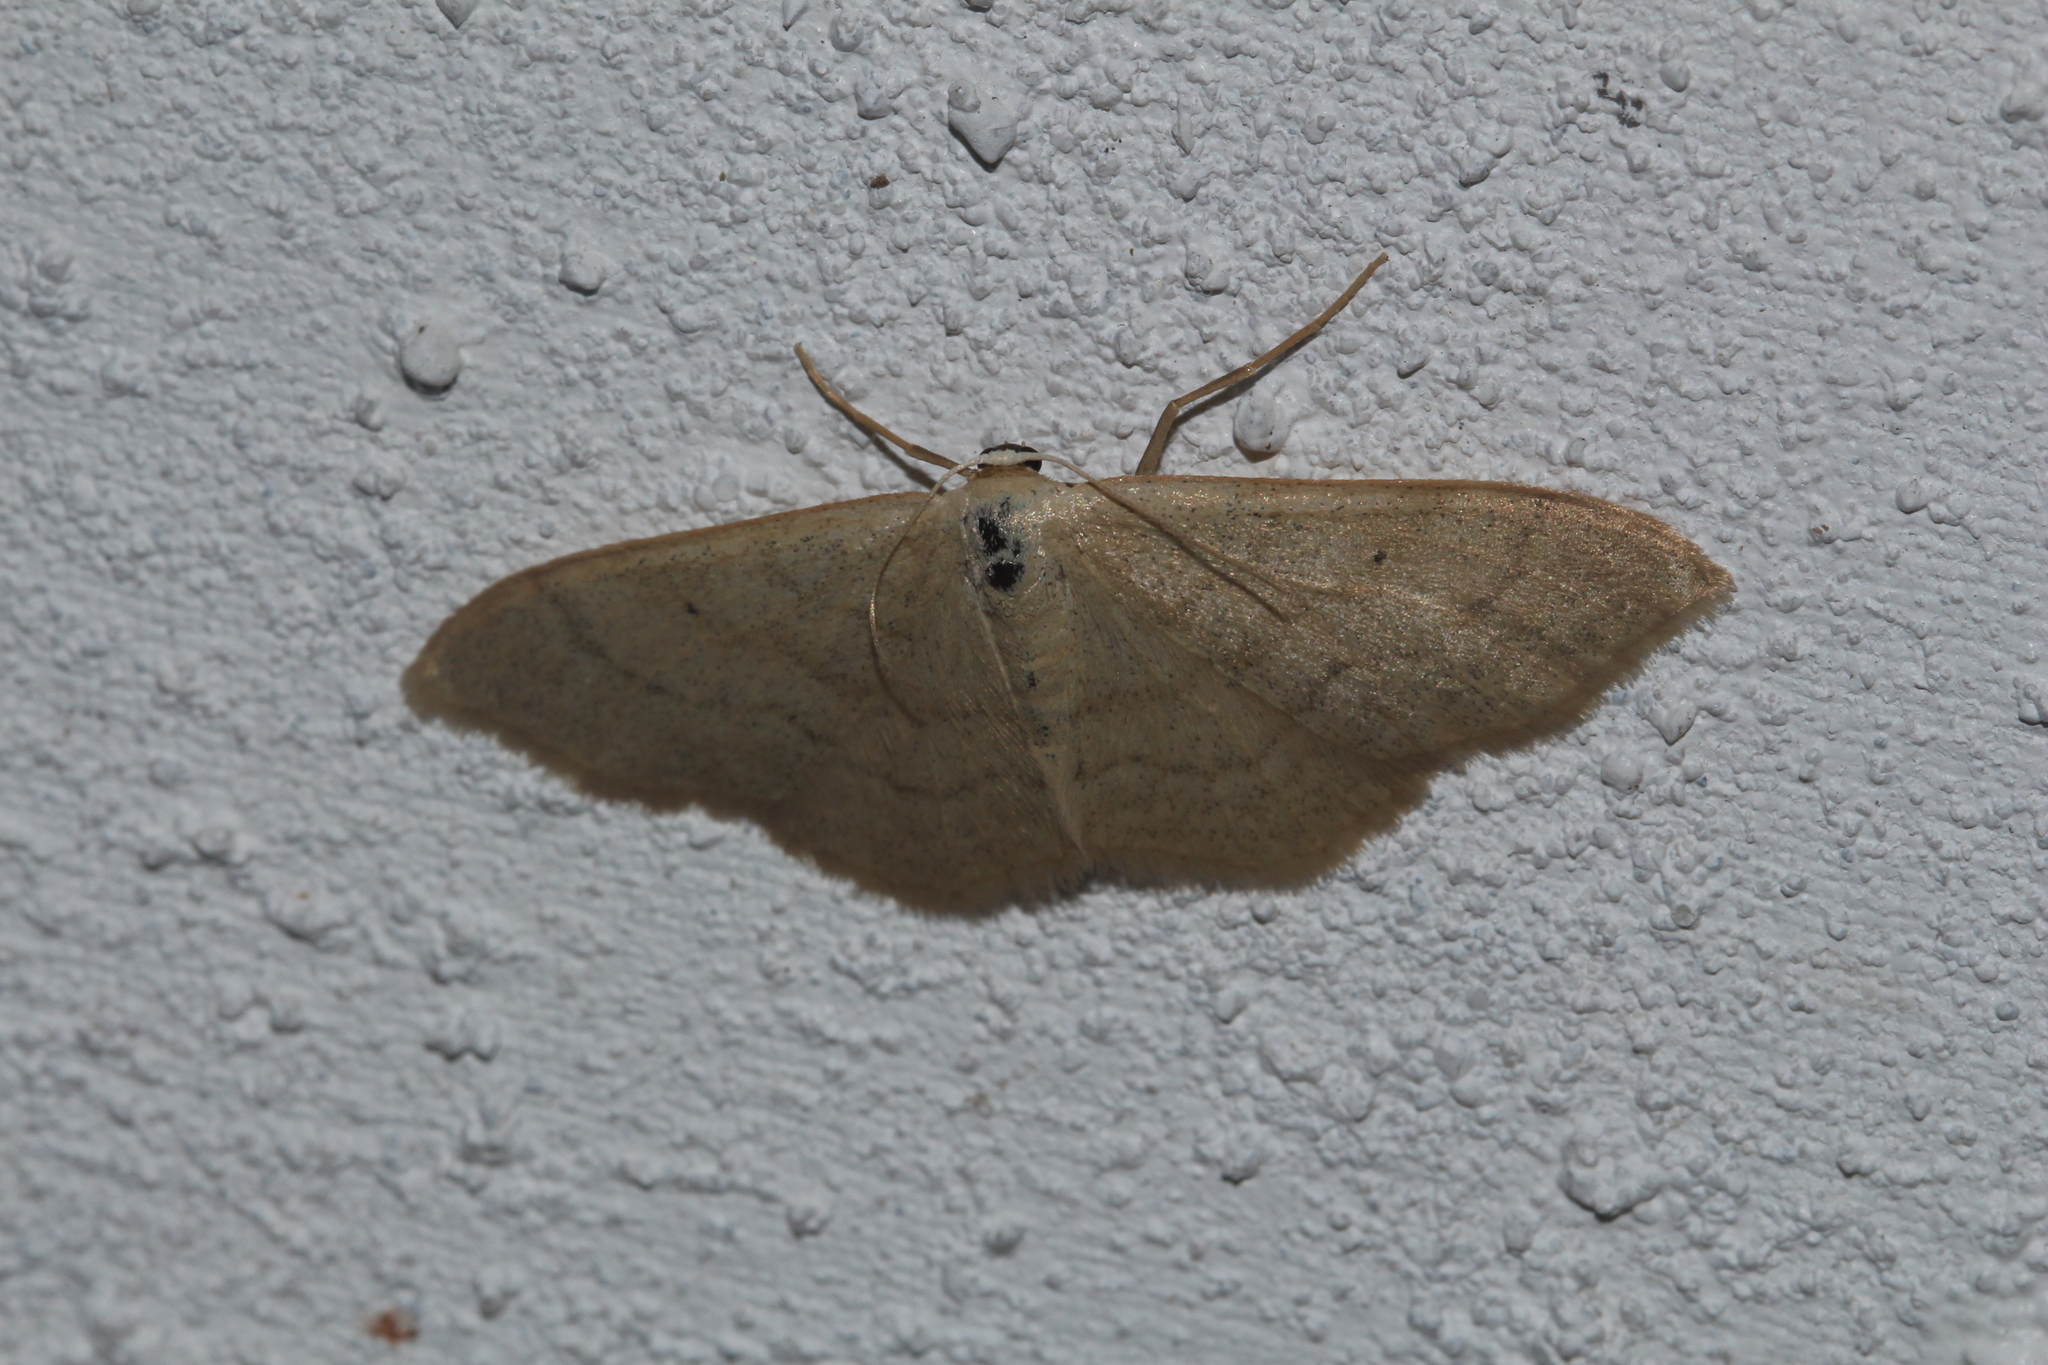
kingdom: Animalia
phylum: Arthropoda
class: Insecta
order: Lepidoptera
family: Geometridae
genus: Idaea
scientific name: Idaea straminata
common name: Plain wave
